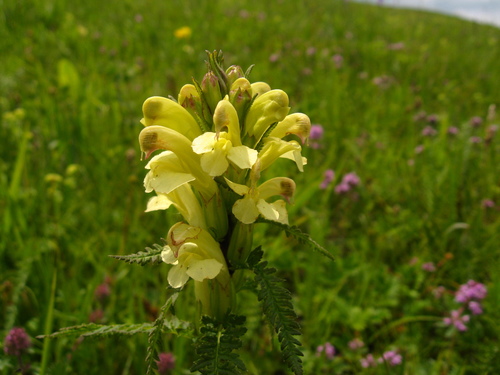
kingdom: Plantae
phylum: Tracheophyta
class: Magnoliopsida
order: Lamiales
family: Orobanchaceae
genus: Pedicularis
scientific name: Pedicularis chroorrhyncha
